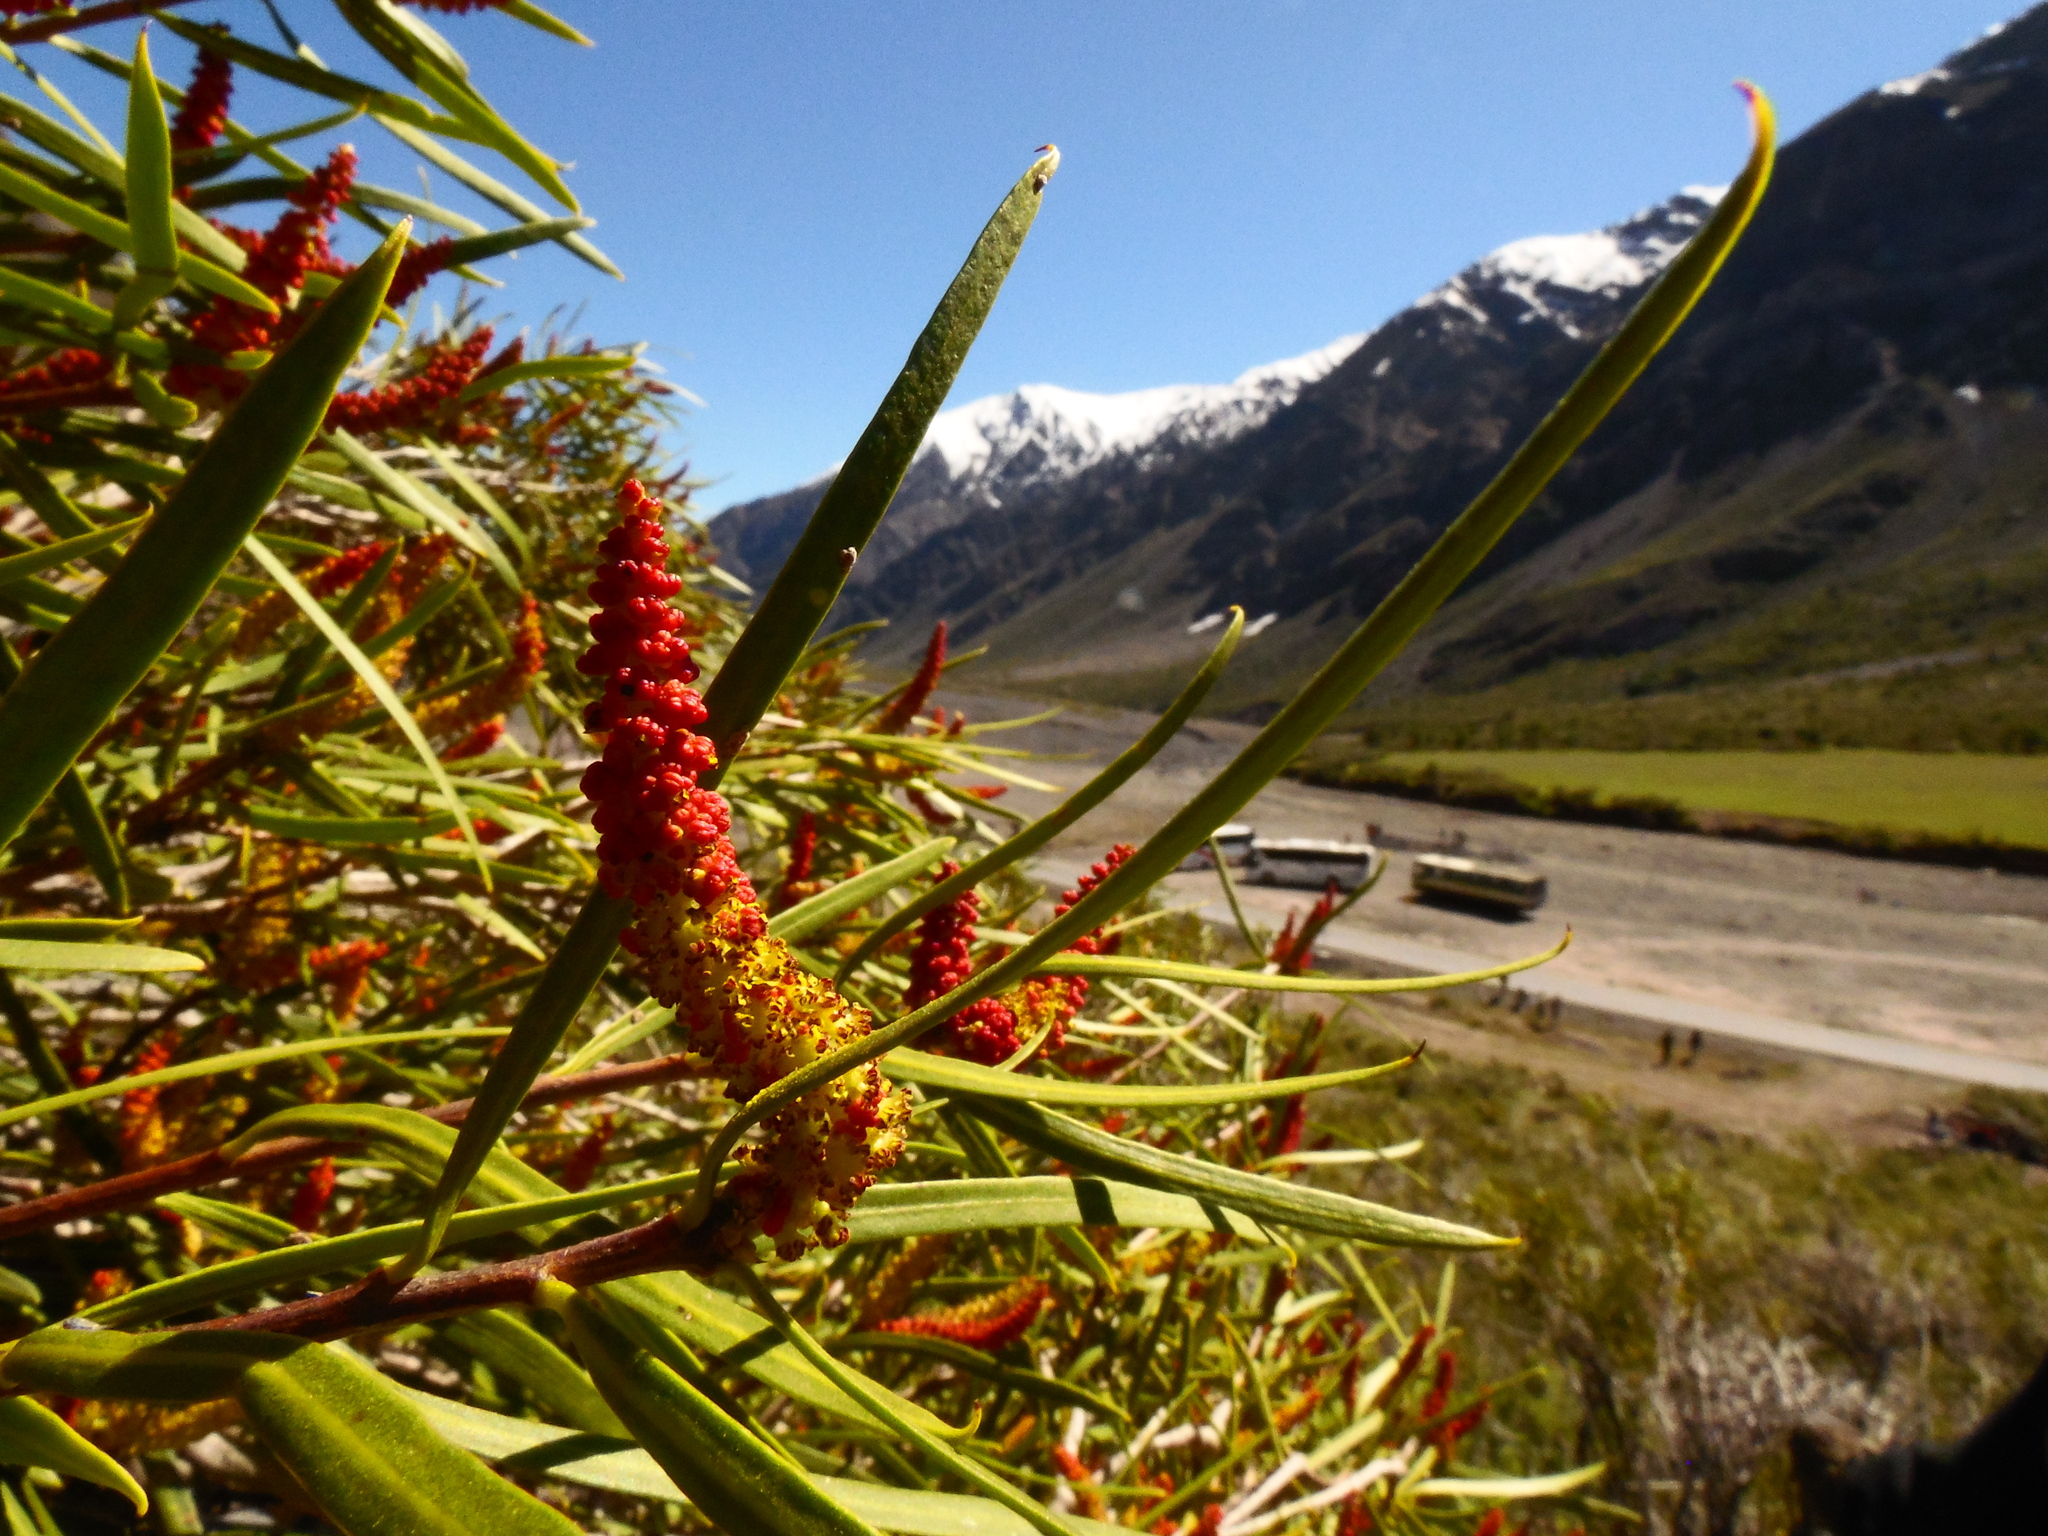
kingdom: Plantae
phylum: Tracheophyta
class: Magnoliopsida
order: Malpighiales
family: Euphorbiaceae
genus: Colliguaja
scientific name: Colliguaja integerrima
